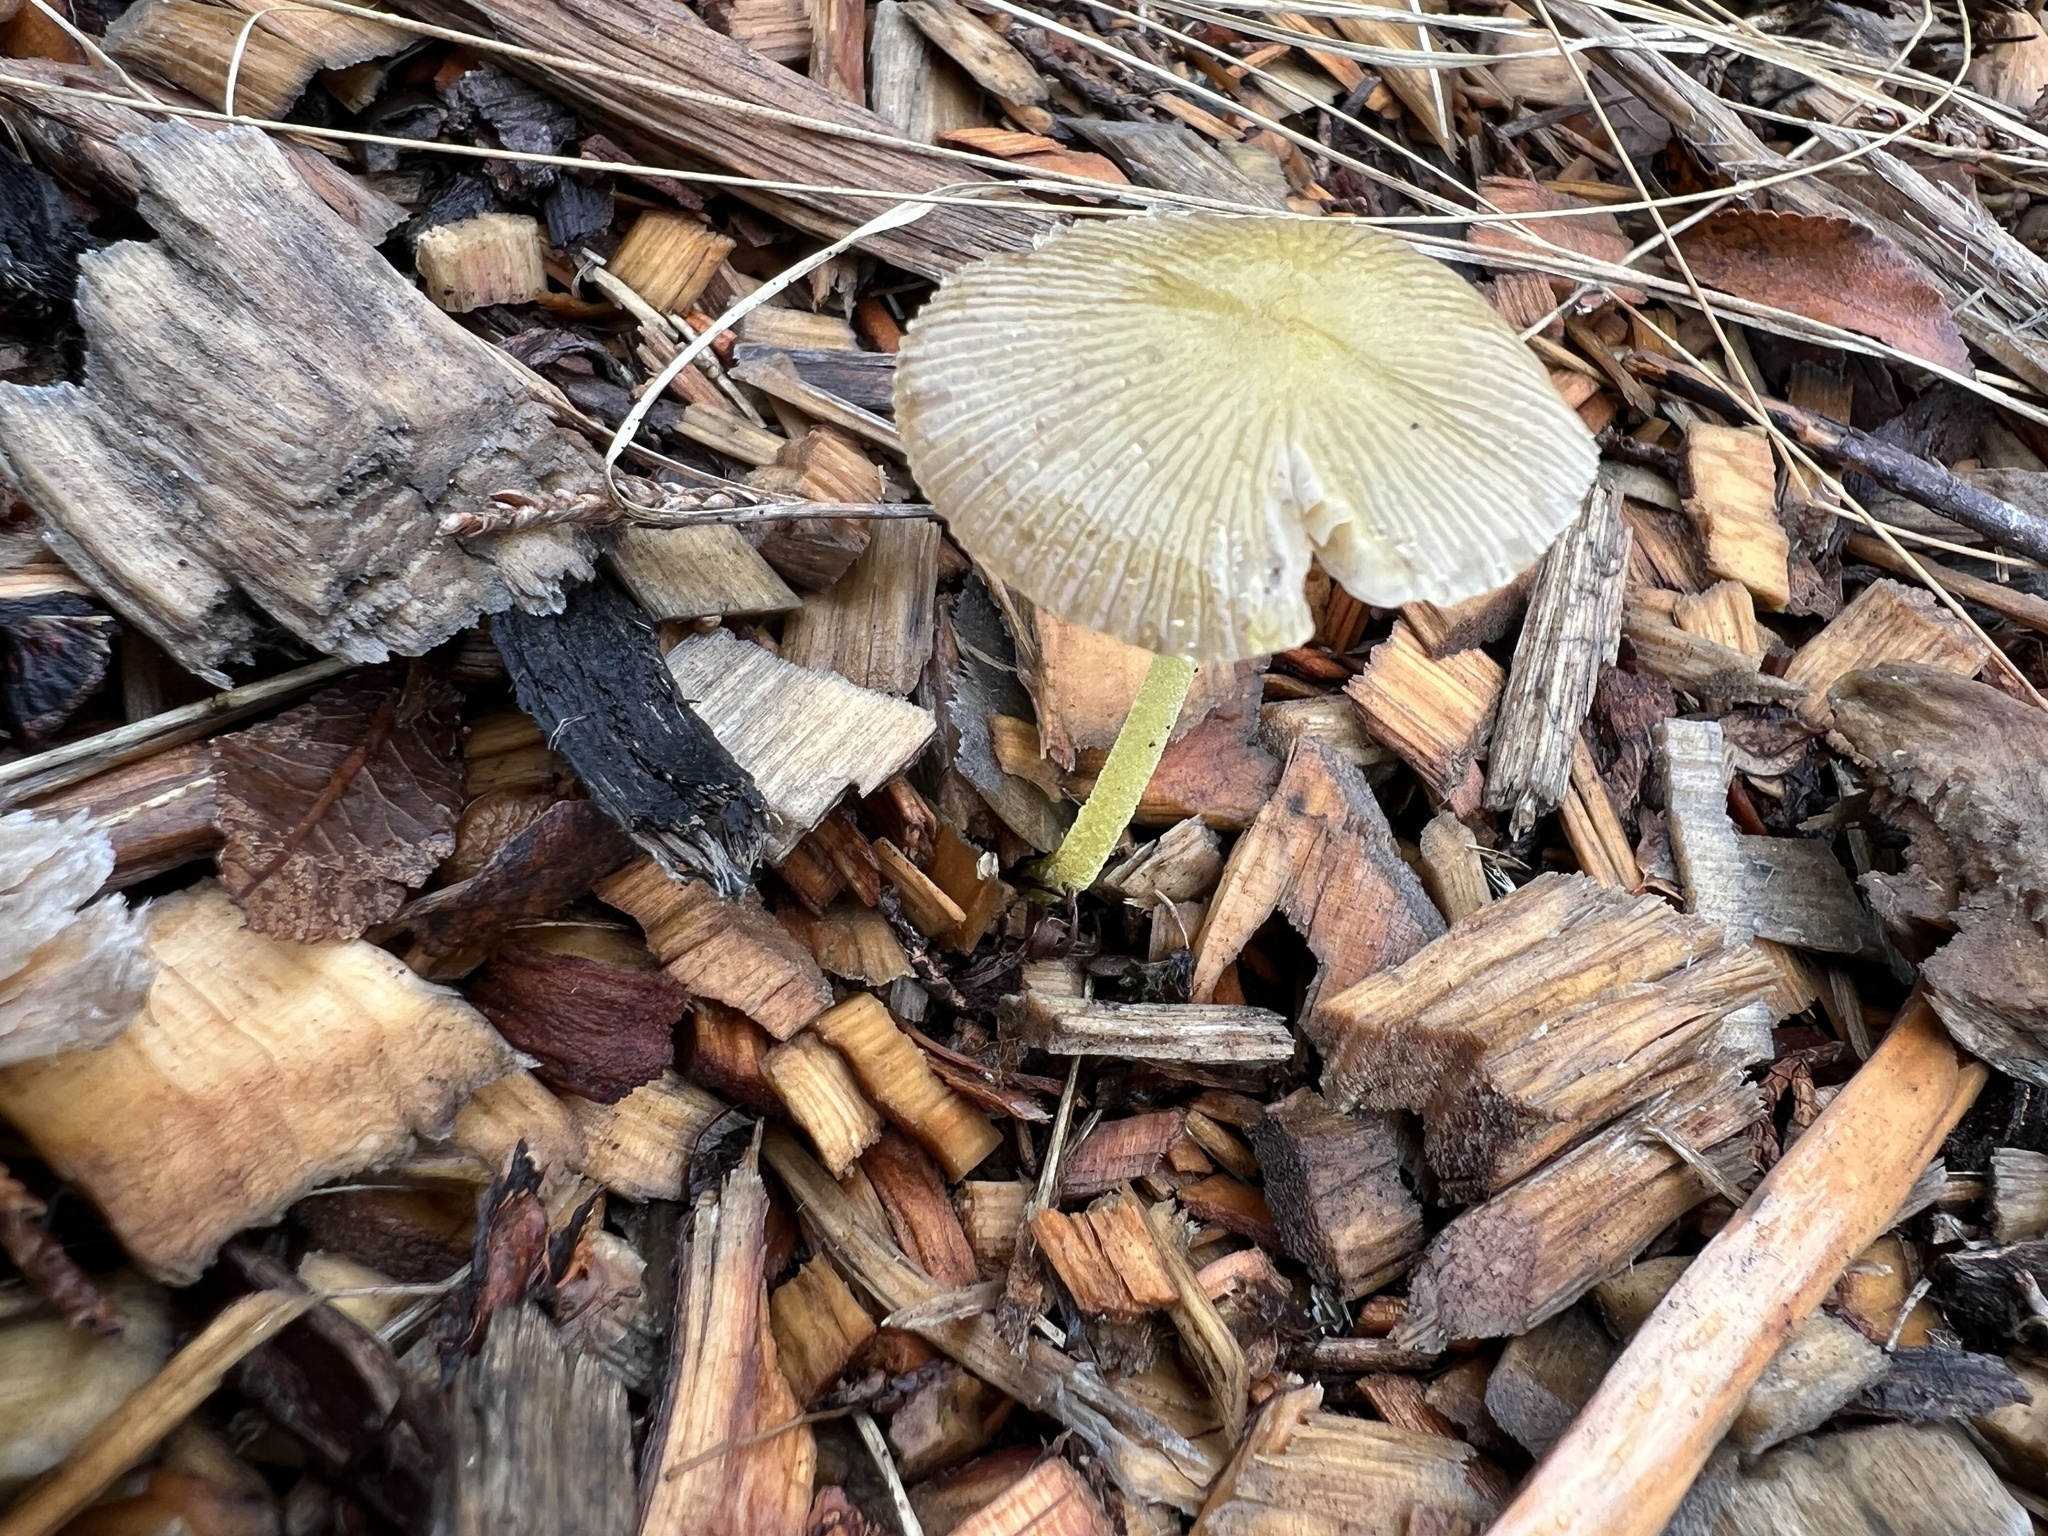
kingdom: Fungi
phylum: Basidiomycota
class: Agaricomycetes
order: Agaricales
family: Bolbitiaceae
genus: Bolbitius
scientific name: Bolbitius titubans
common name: Yellow fieldcap
